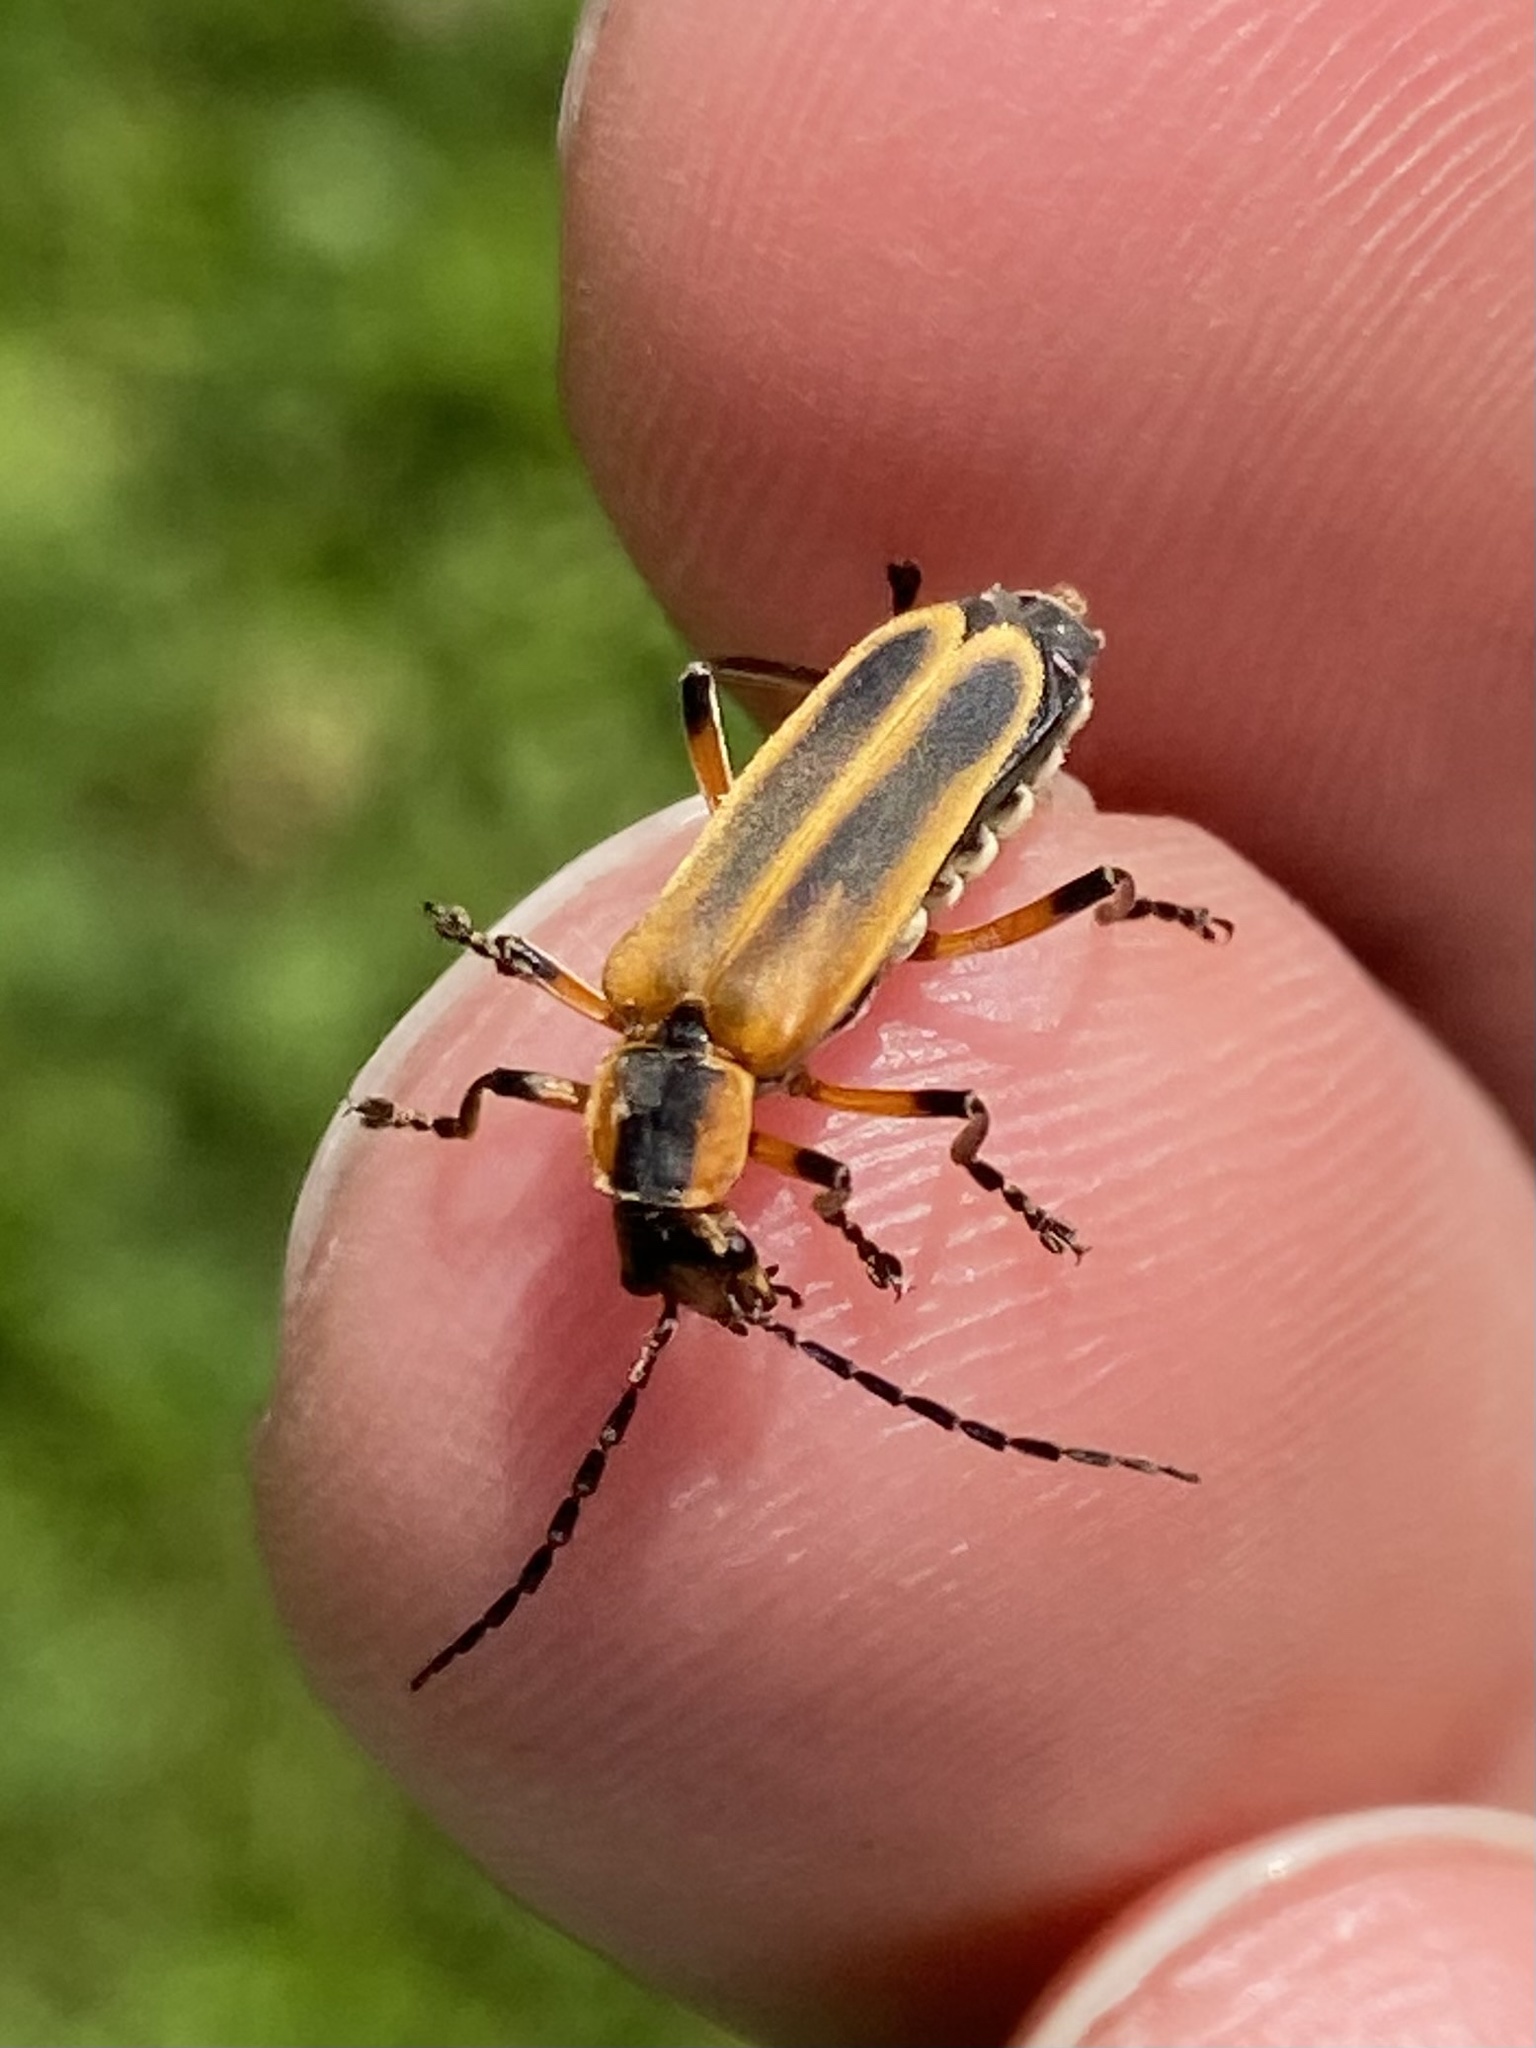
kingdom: Animalia
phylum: Arthropoda
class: Insecta
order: Coleoptera
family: Cantharidae
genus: Chauliognathus
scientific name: Chauliognathus marginatus
